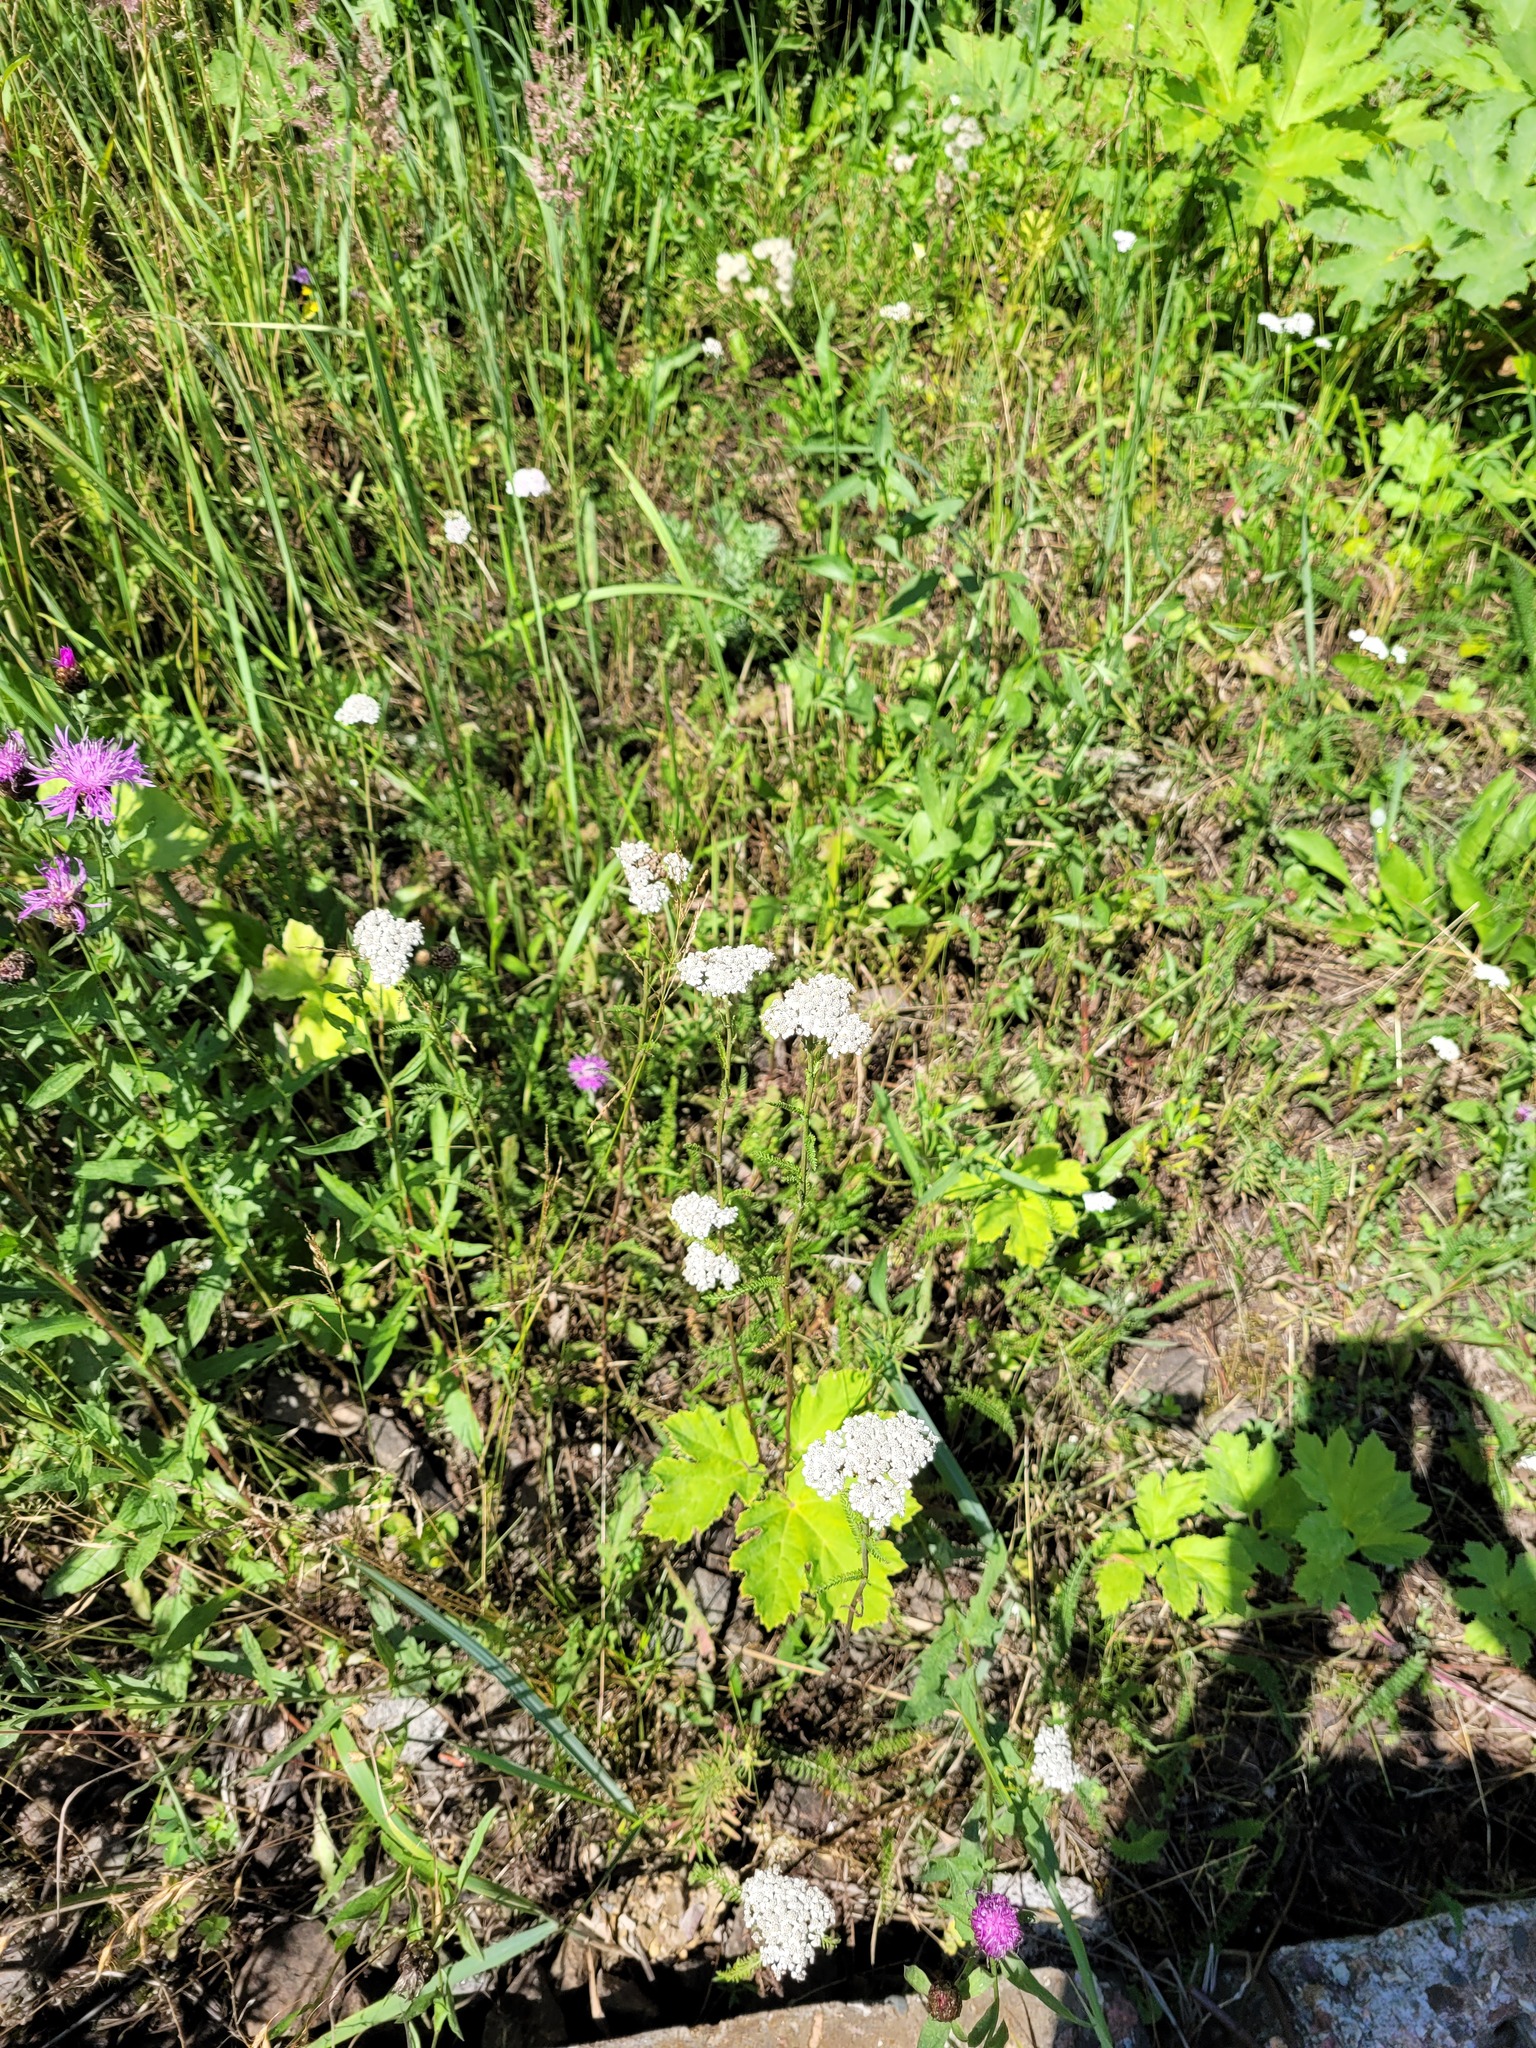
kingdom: Plantae
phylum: Tracheophyta
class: Magnoliopsida
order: Asterales
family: Asteraceae
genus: Achillea
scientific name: Achillea millefolium
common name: Yarrow
